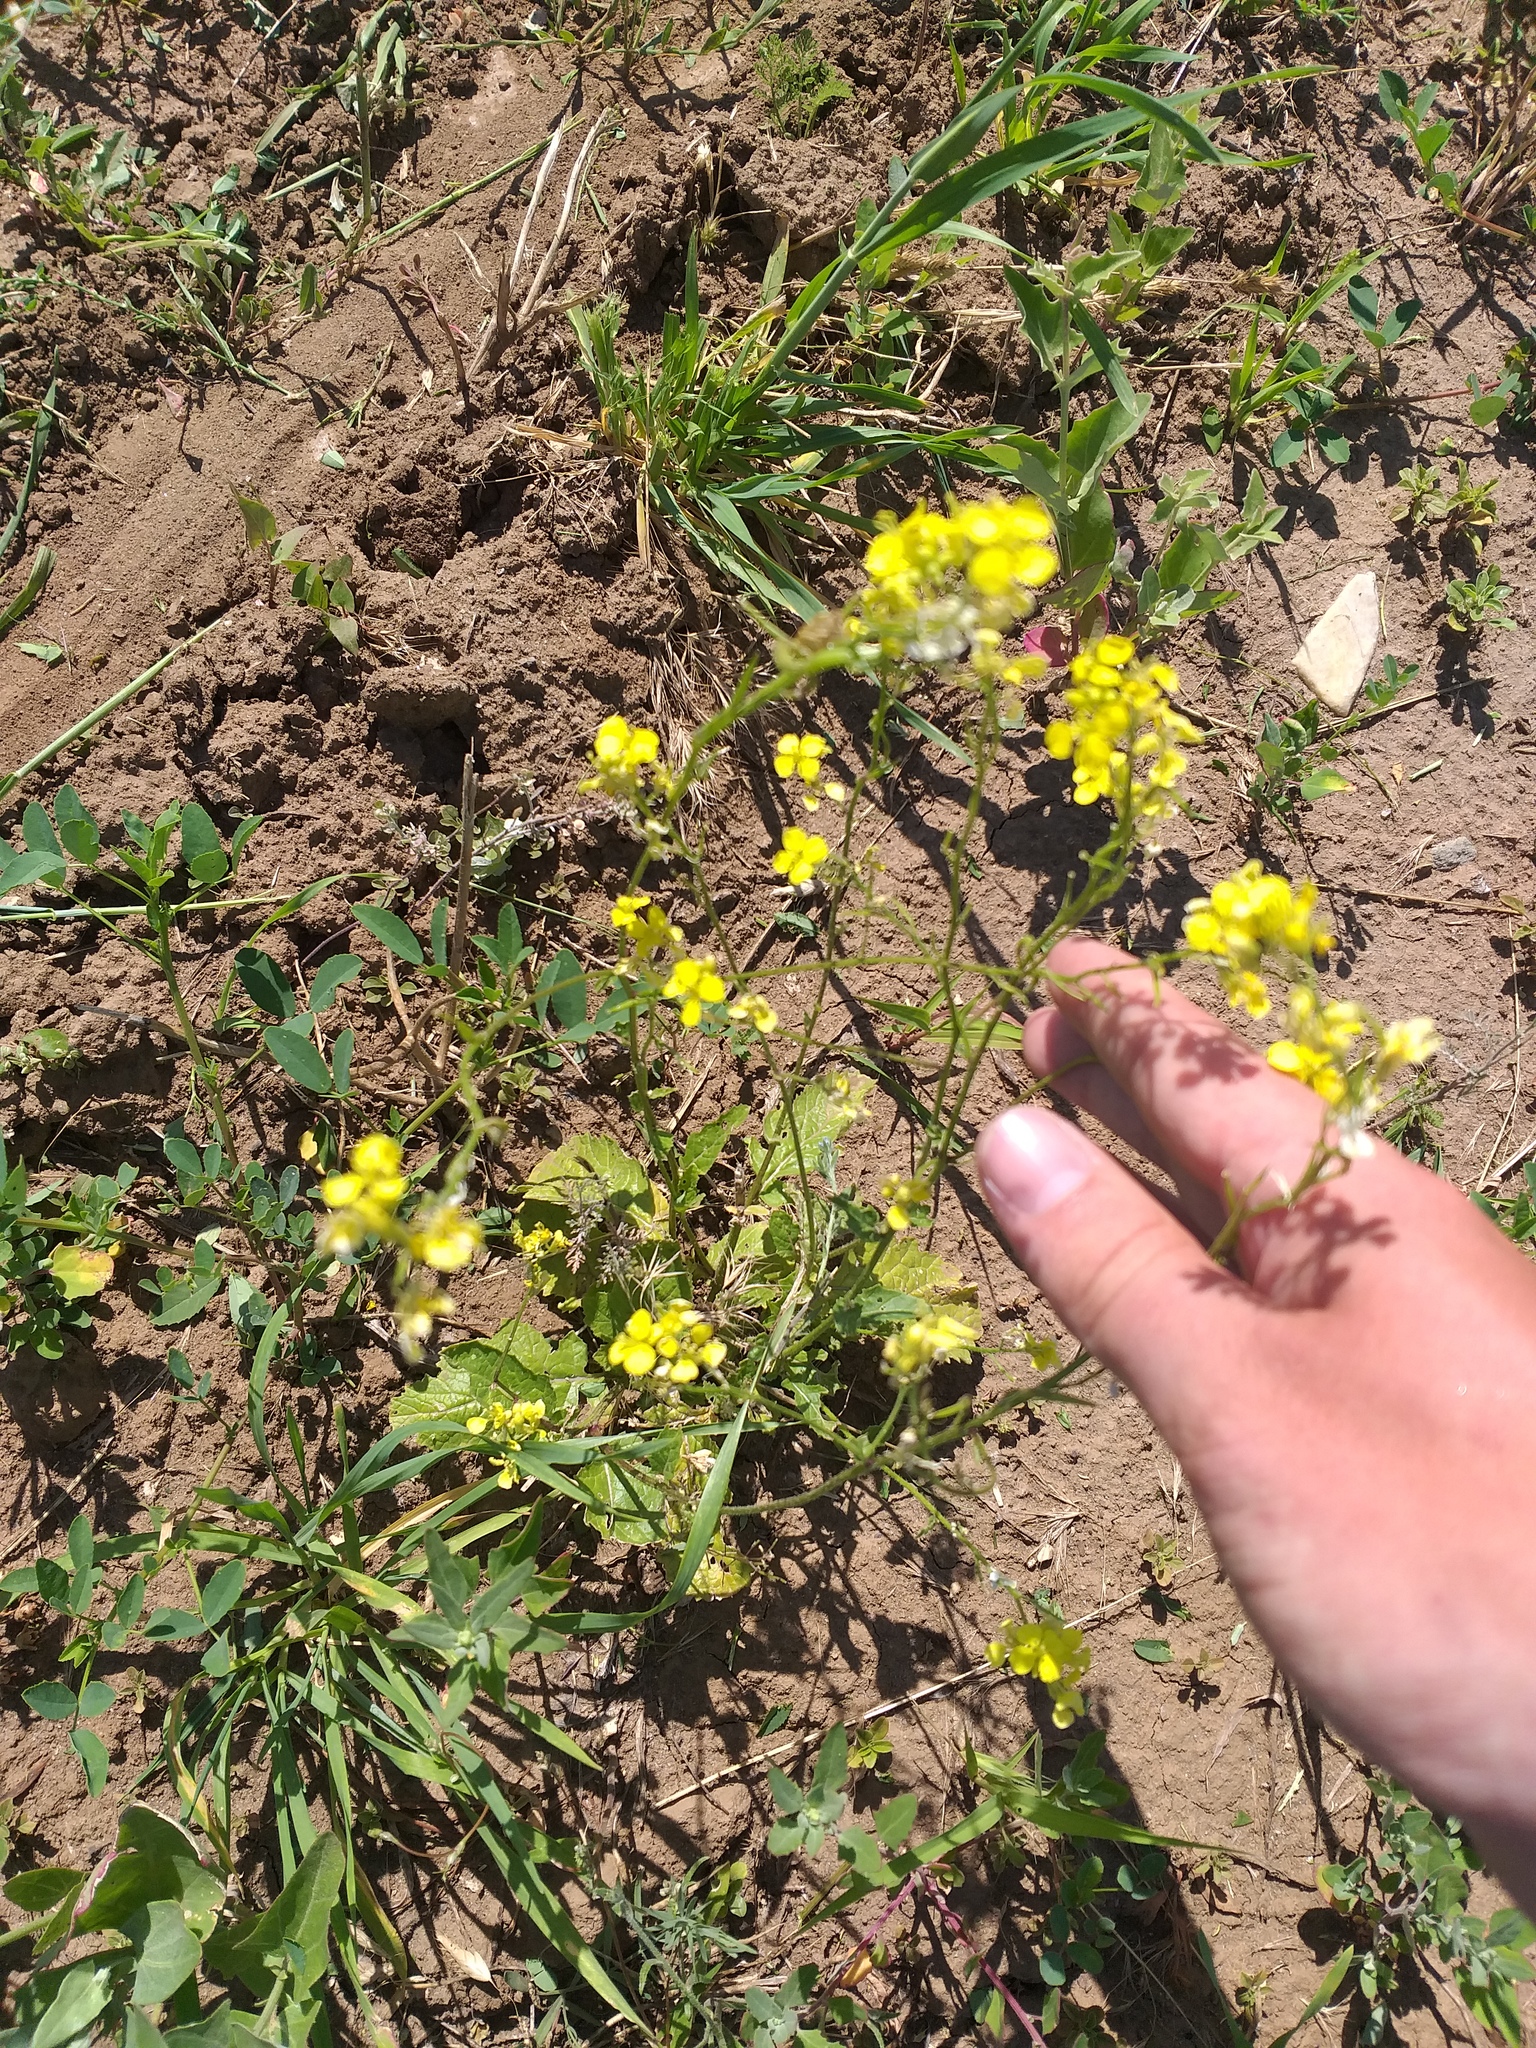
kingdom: Plantae
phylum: Tracheophyta
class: Magnoliopsida
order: Brassicales
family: Brassicaceae
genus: Sinapis
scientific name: Sinapis arvensis
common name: Charlock
